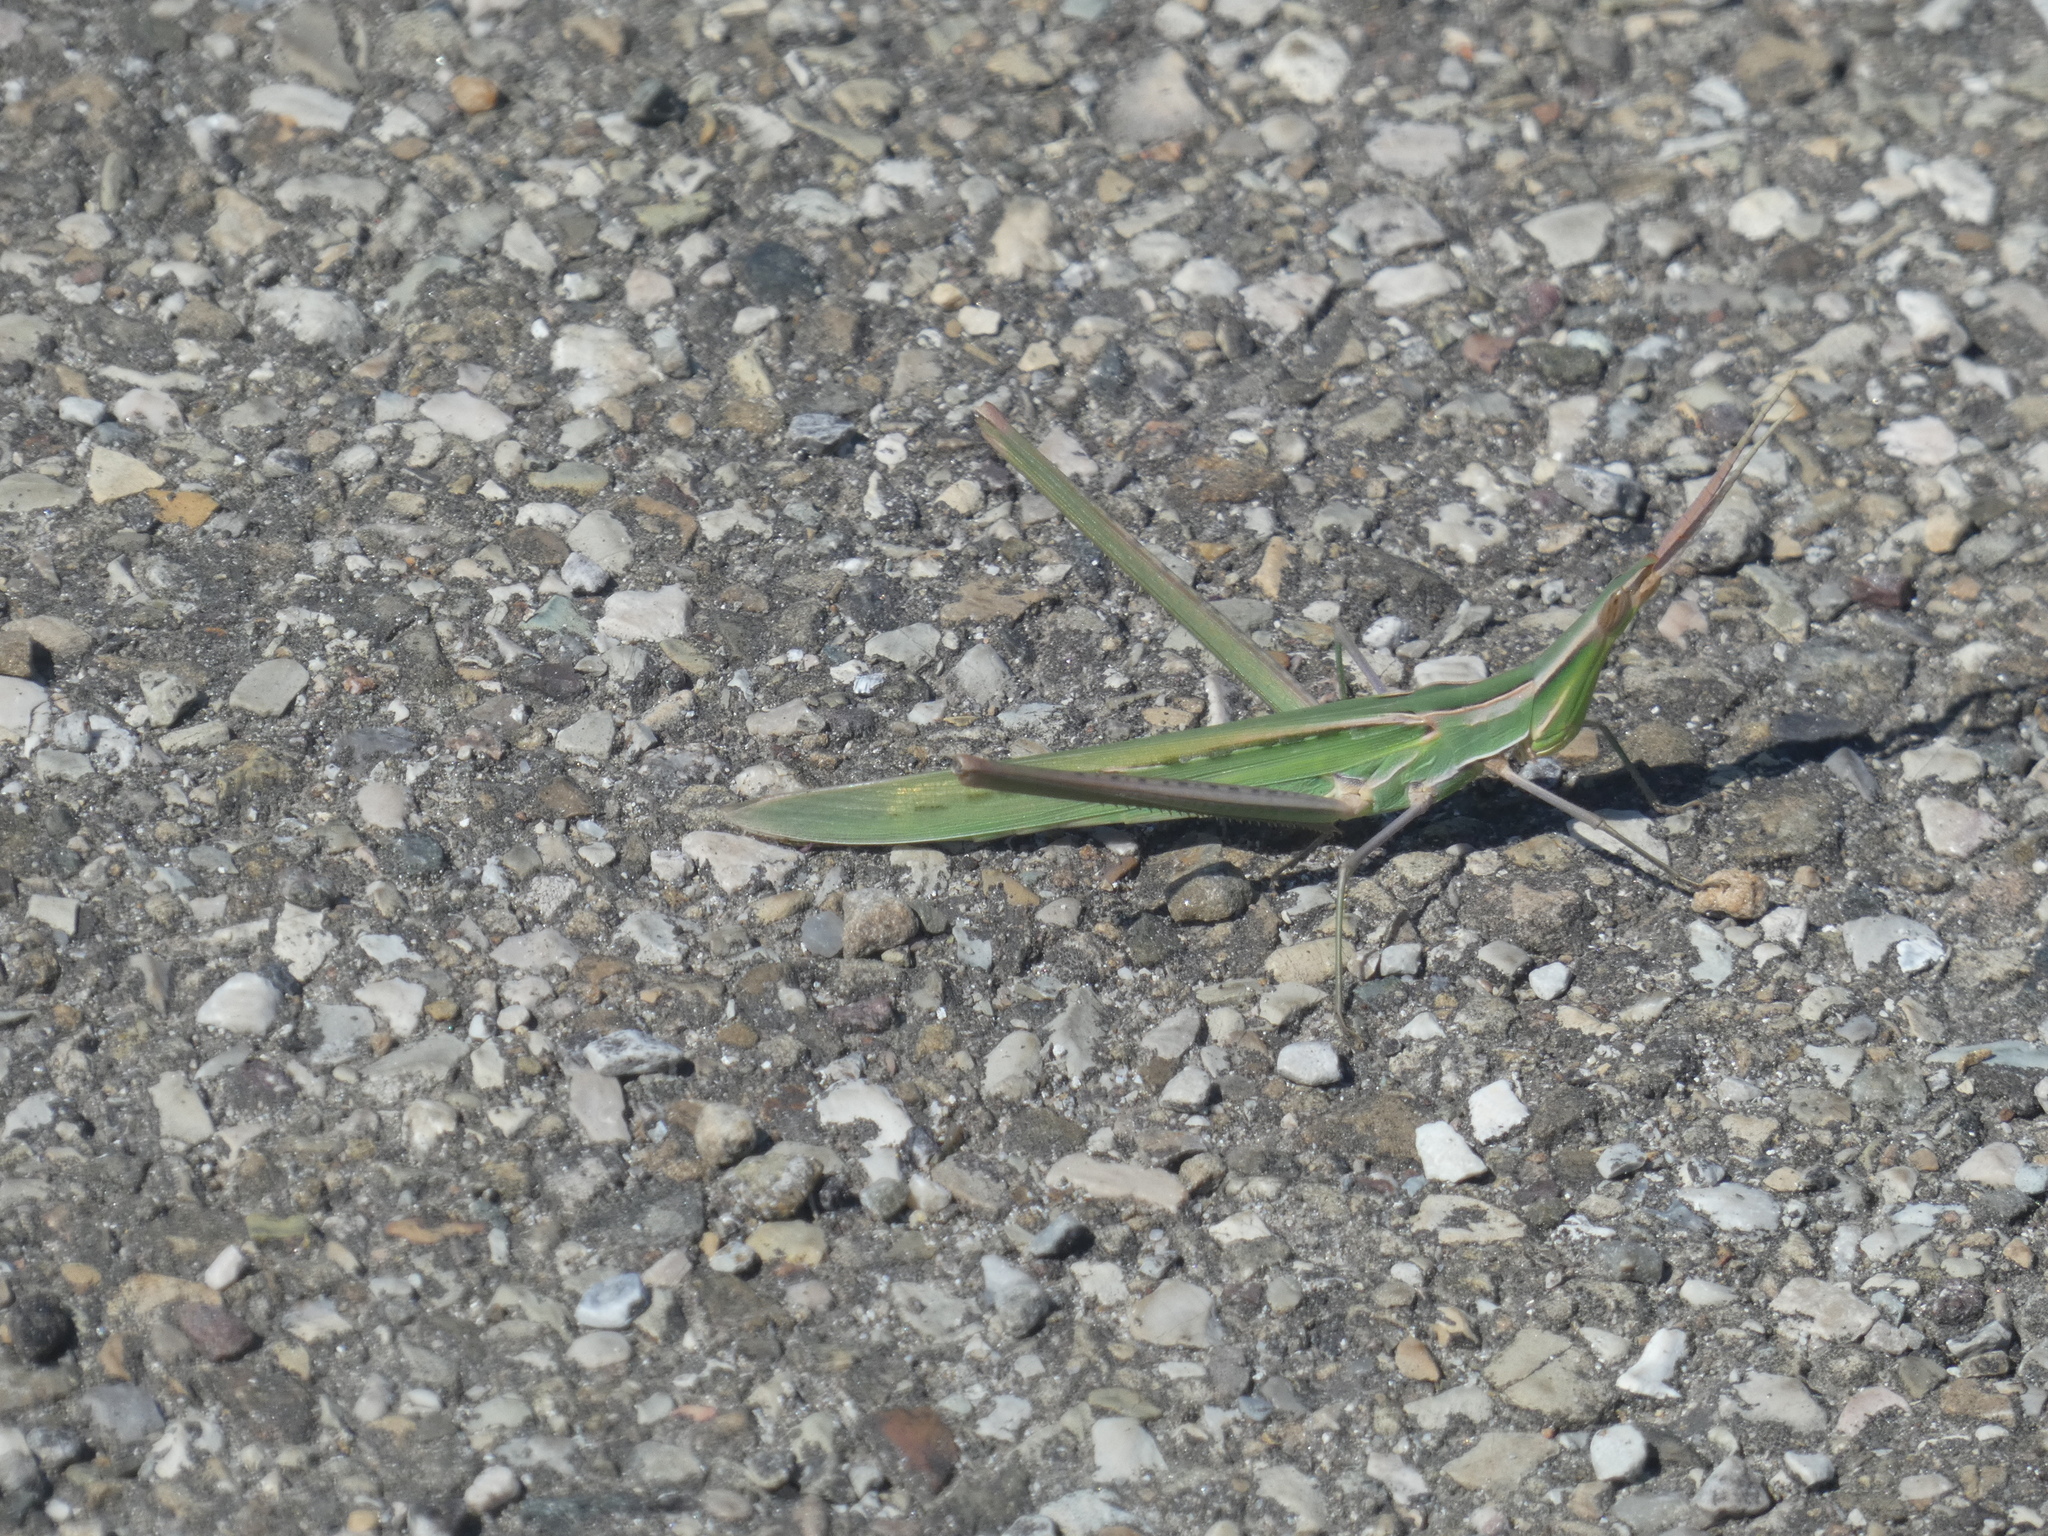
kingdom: Animalia
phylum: Arthropoda
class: Insecta
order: Orthoptera
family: Acrididae
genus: Acrida
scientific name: Acrida ungarica
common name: Common cone-headed grasshopper
